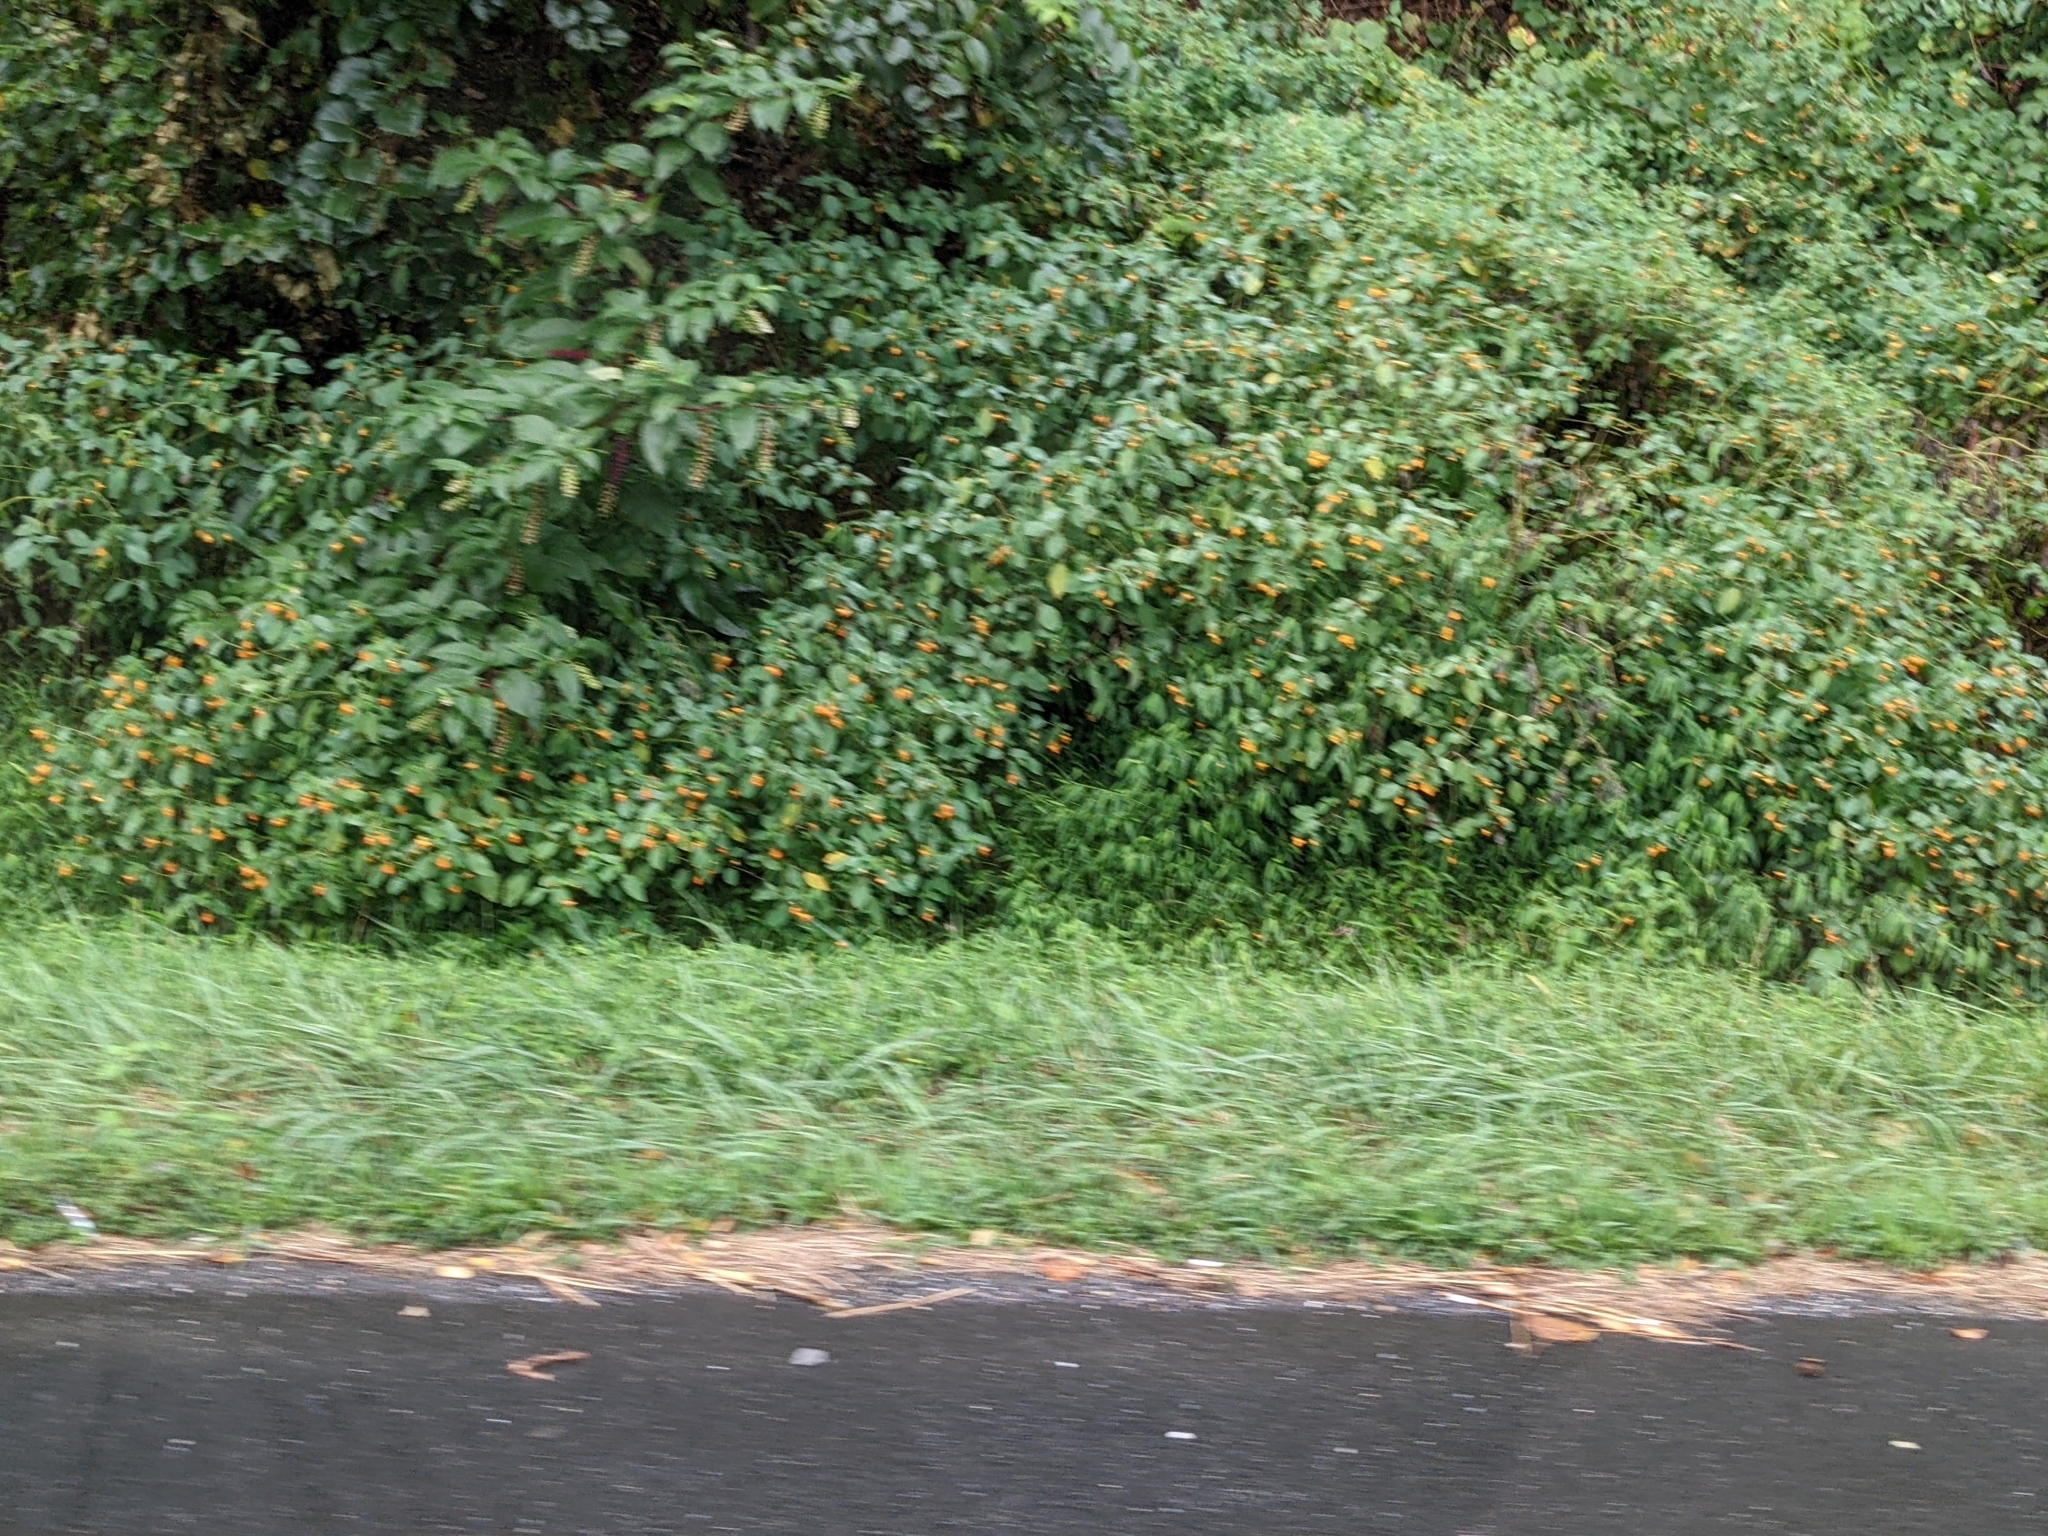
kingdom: Plantae
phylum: Tracheophyta
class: Magnoliopsida
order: Ericales
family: Balsaminaceae
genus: Impatiens
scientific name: Impatiens capensis
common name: Orange balsam
